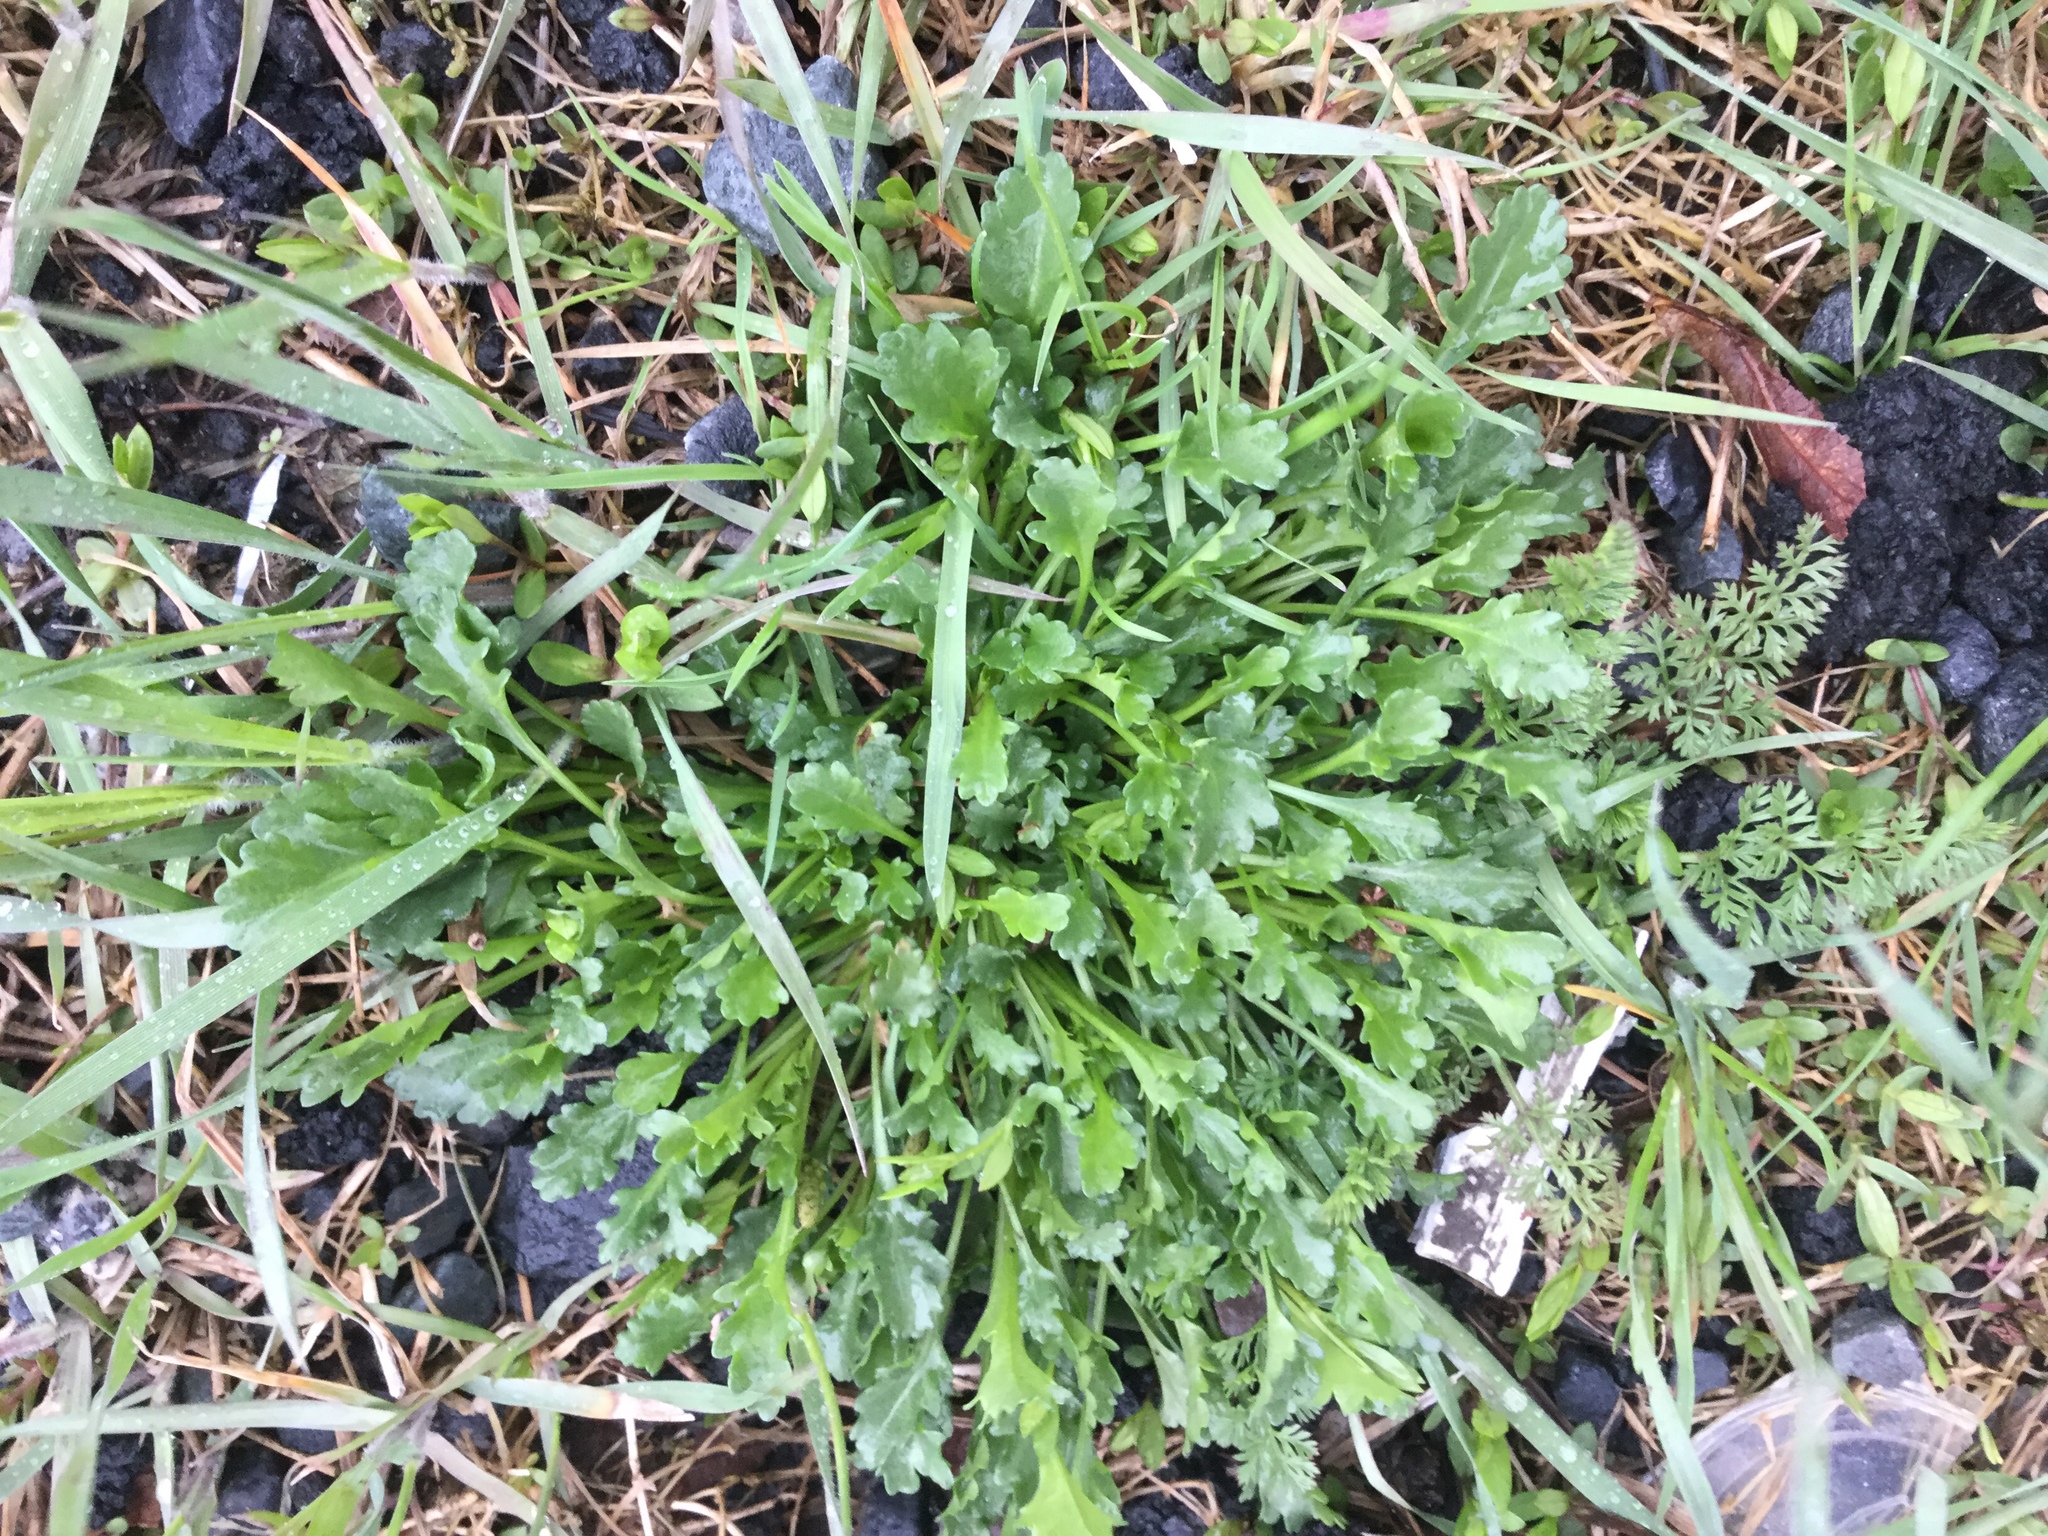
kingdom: Plantae
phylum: Tracheophyta
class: Magnoliopsida
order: Asterales
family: Asteraceae
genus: Leucanthemum
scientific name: Leucanthemum vulgare
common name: Oxeye daisy
